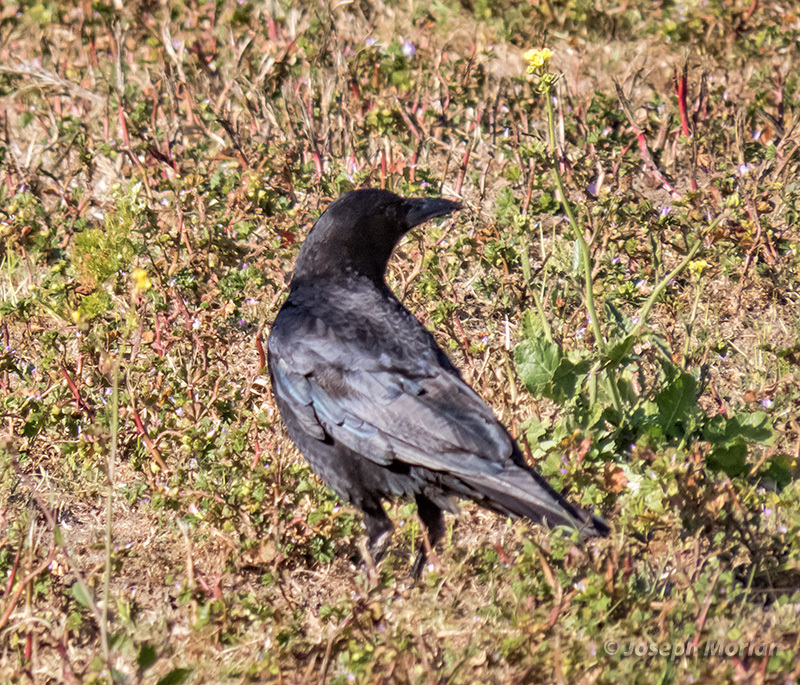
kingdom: Animalia
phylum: Chordata
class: Aves
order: Passeriformes
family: Corvidae
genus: Corvus
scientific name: Corvus brachyrhynchos
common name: American crow
